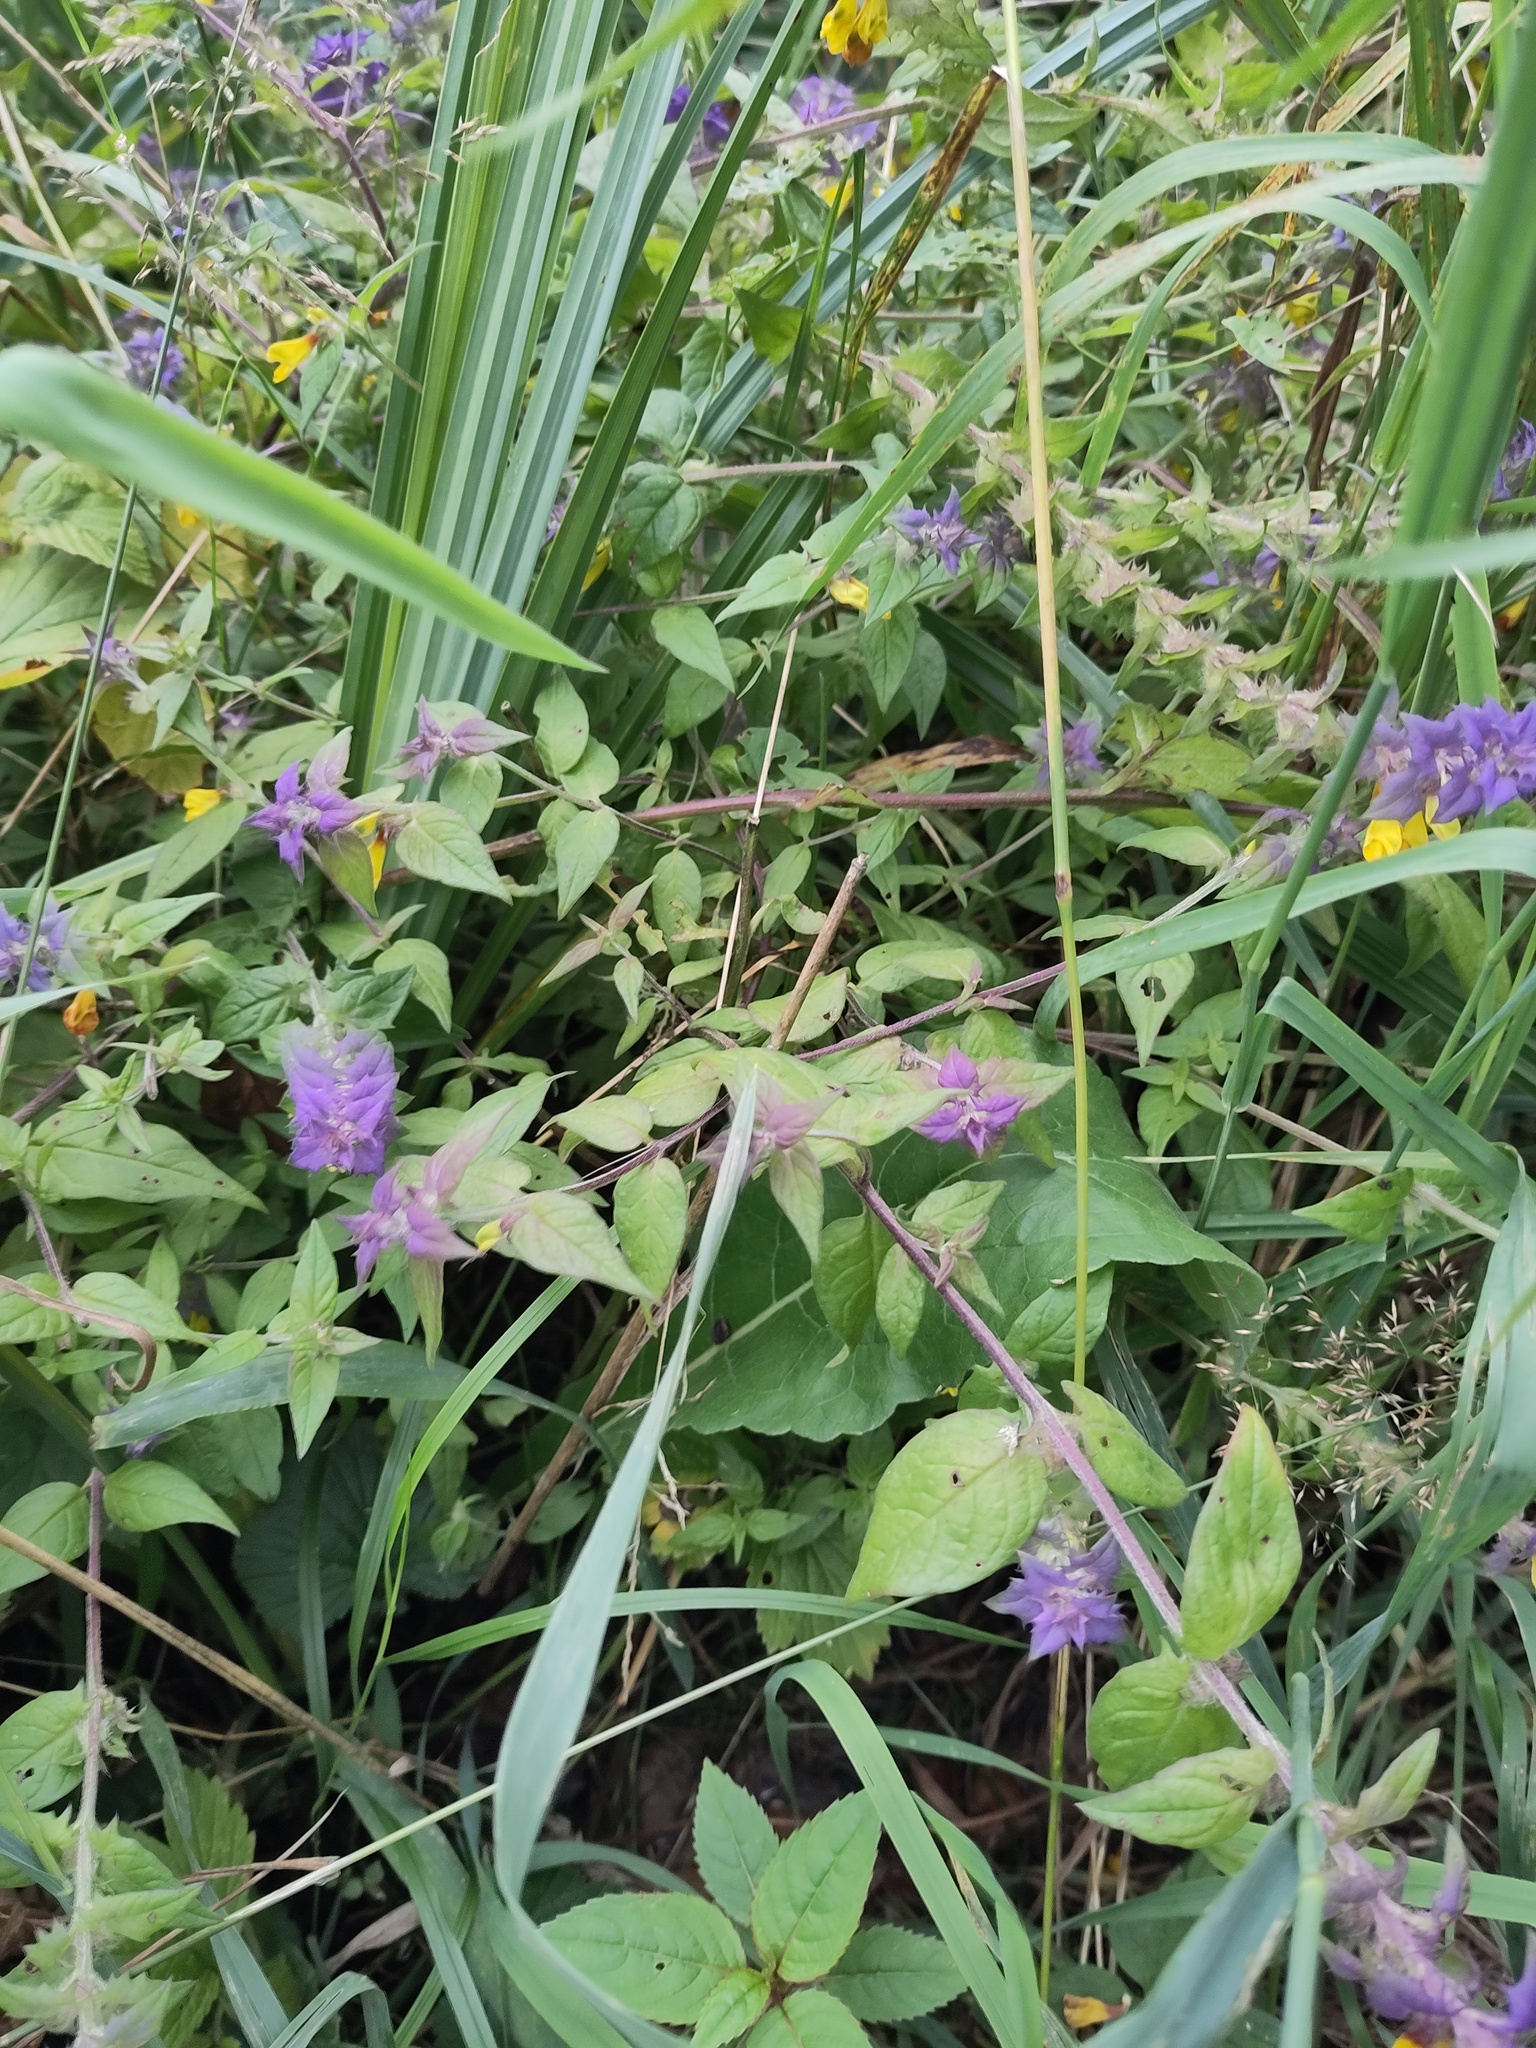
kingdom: Plantae
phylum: Tracheophyta
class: Magnoliopsida
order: Lamiales
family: Orobanchaceae
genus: Melampyrum
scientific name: Melampyrum nemorosum
